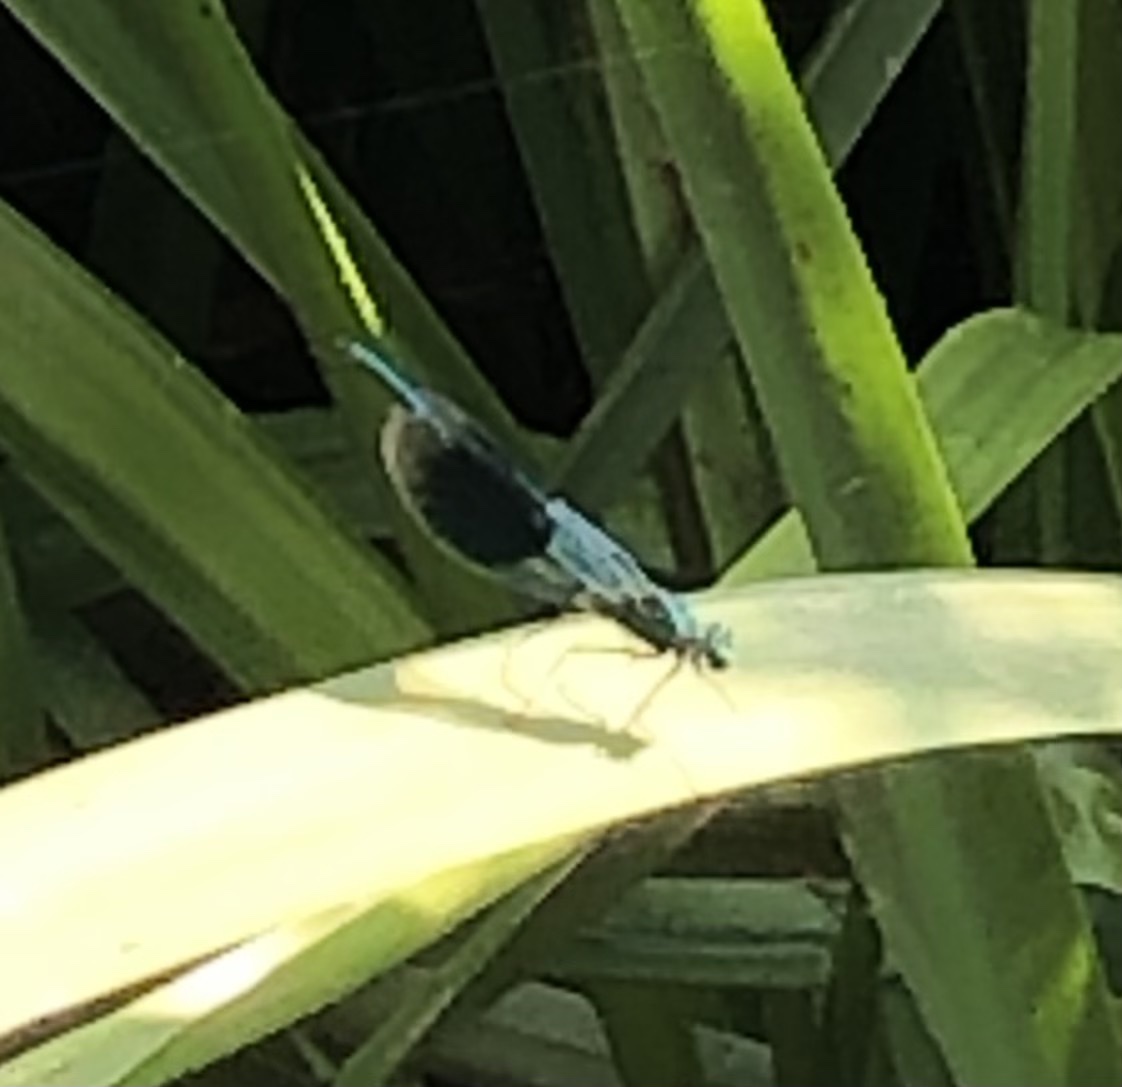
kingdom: Animalia
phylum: Arthropoda
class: Insecta
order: Odonata
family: Calopterygidae
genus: Calopteryx
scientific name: Calopteryx splendens
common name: Banded demoiselle
